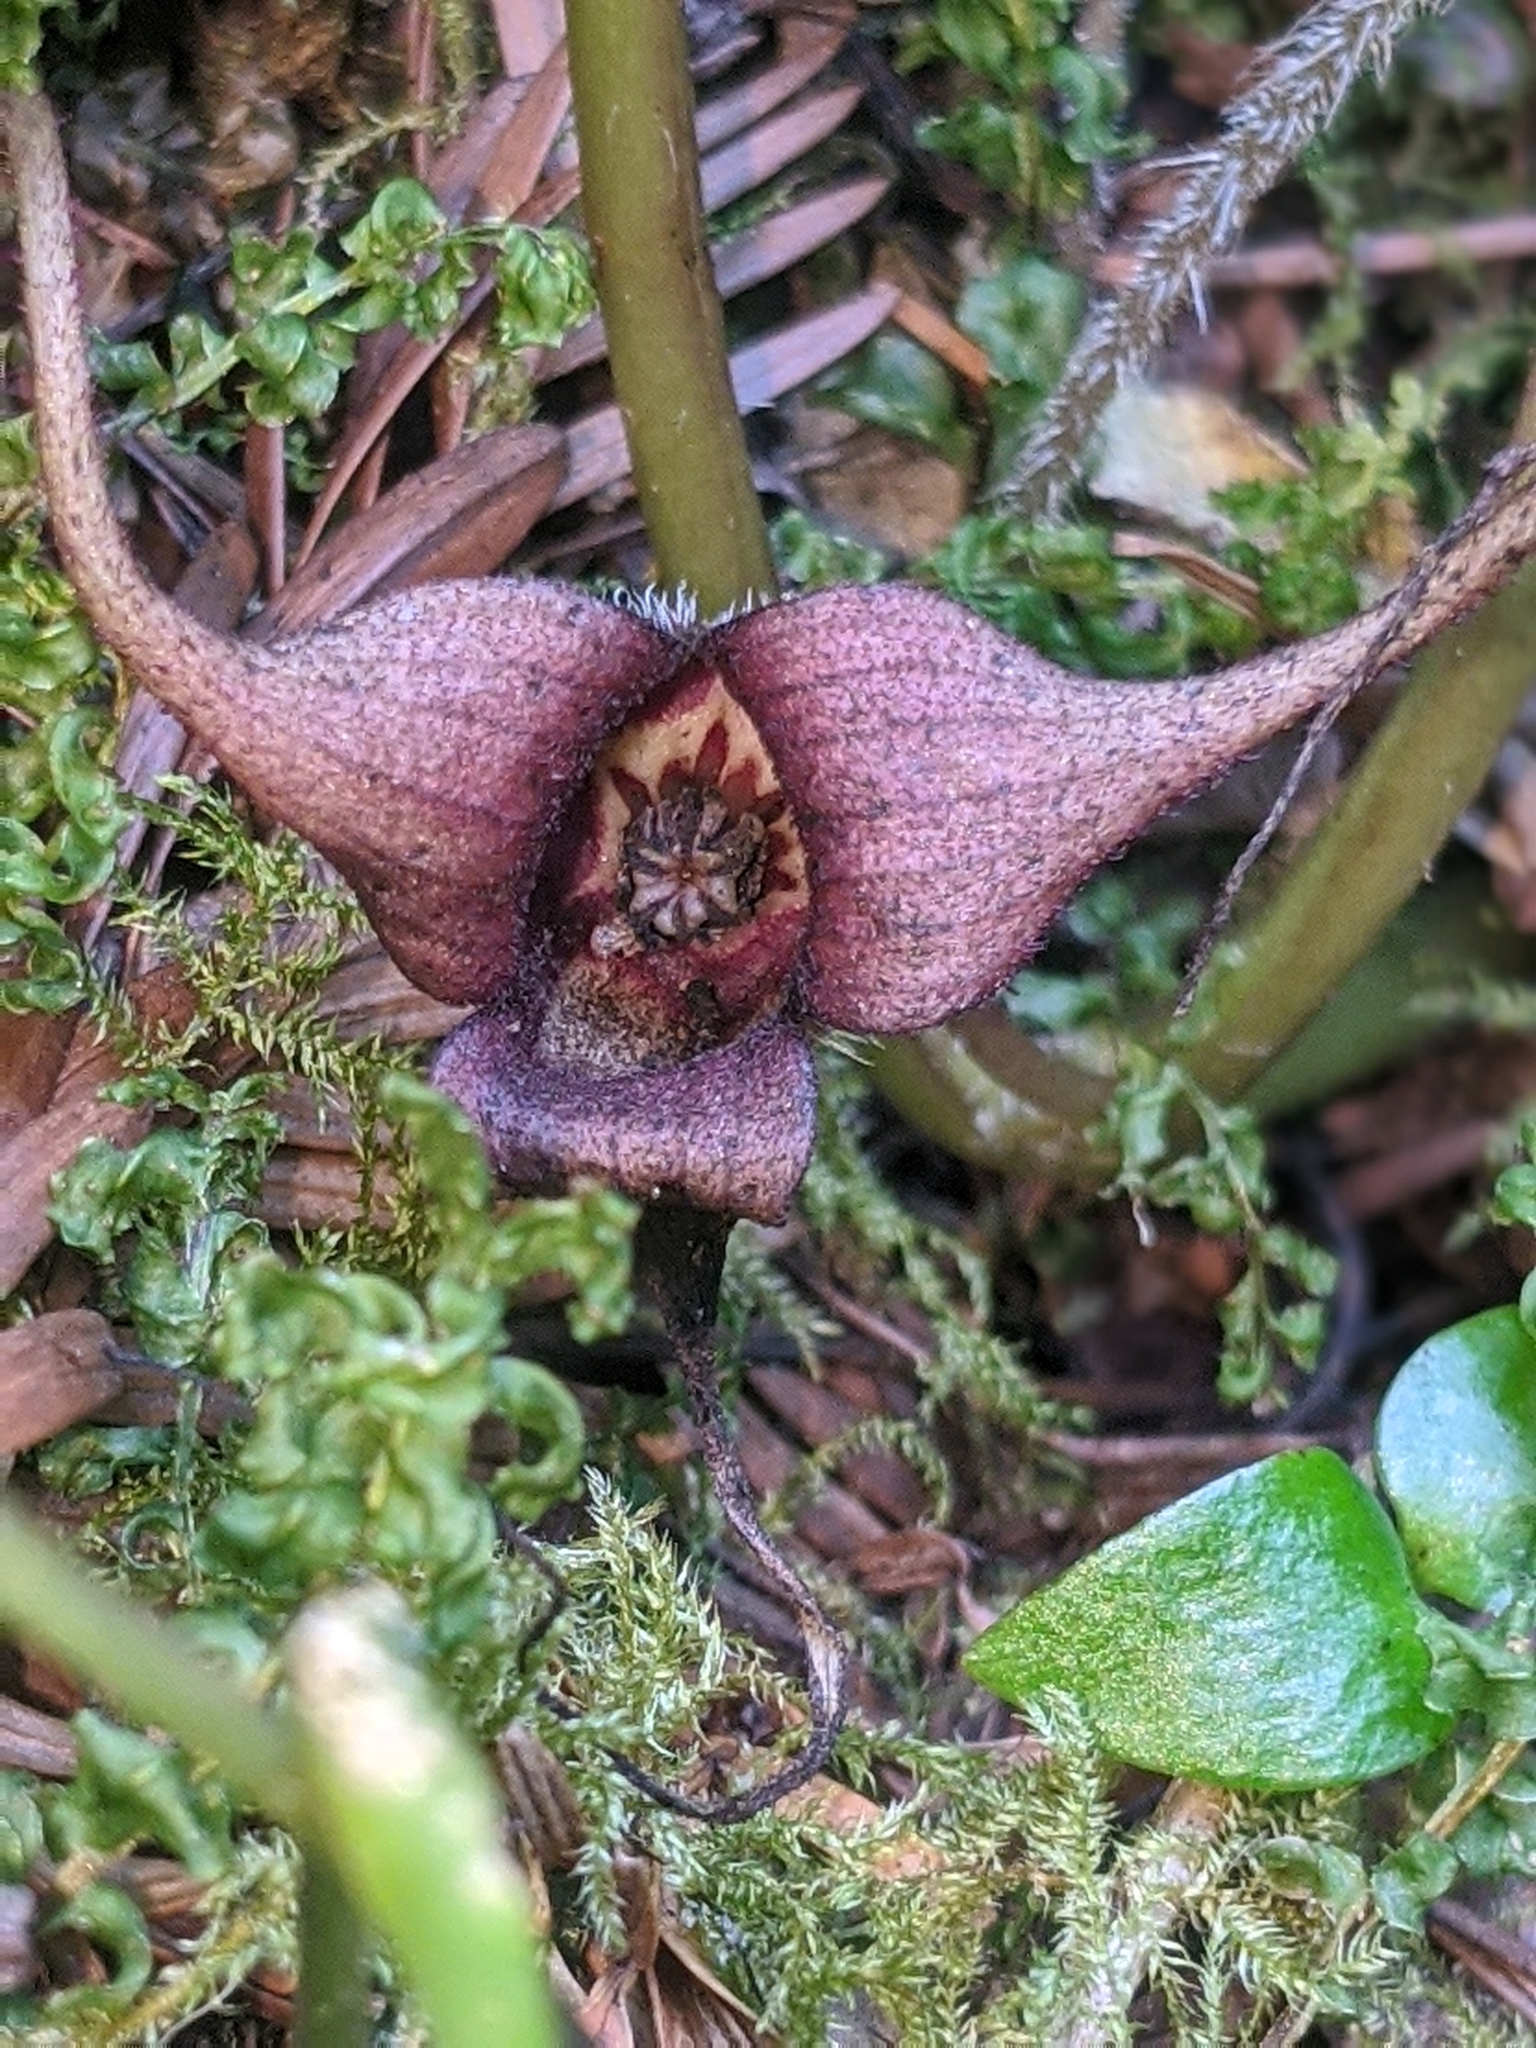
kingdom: Plantae
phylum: Tracheophyta
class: Magnoliopsida
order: Piperales
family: Aristolochiaceae
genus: Asarum
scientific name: Asarum caudatum
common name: Wild ginger
